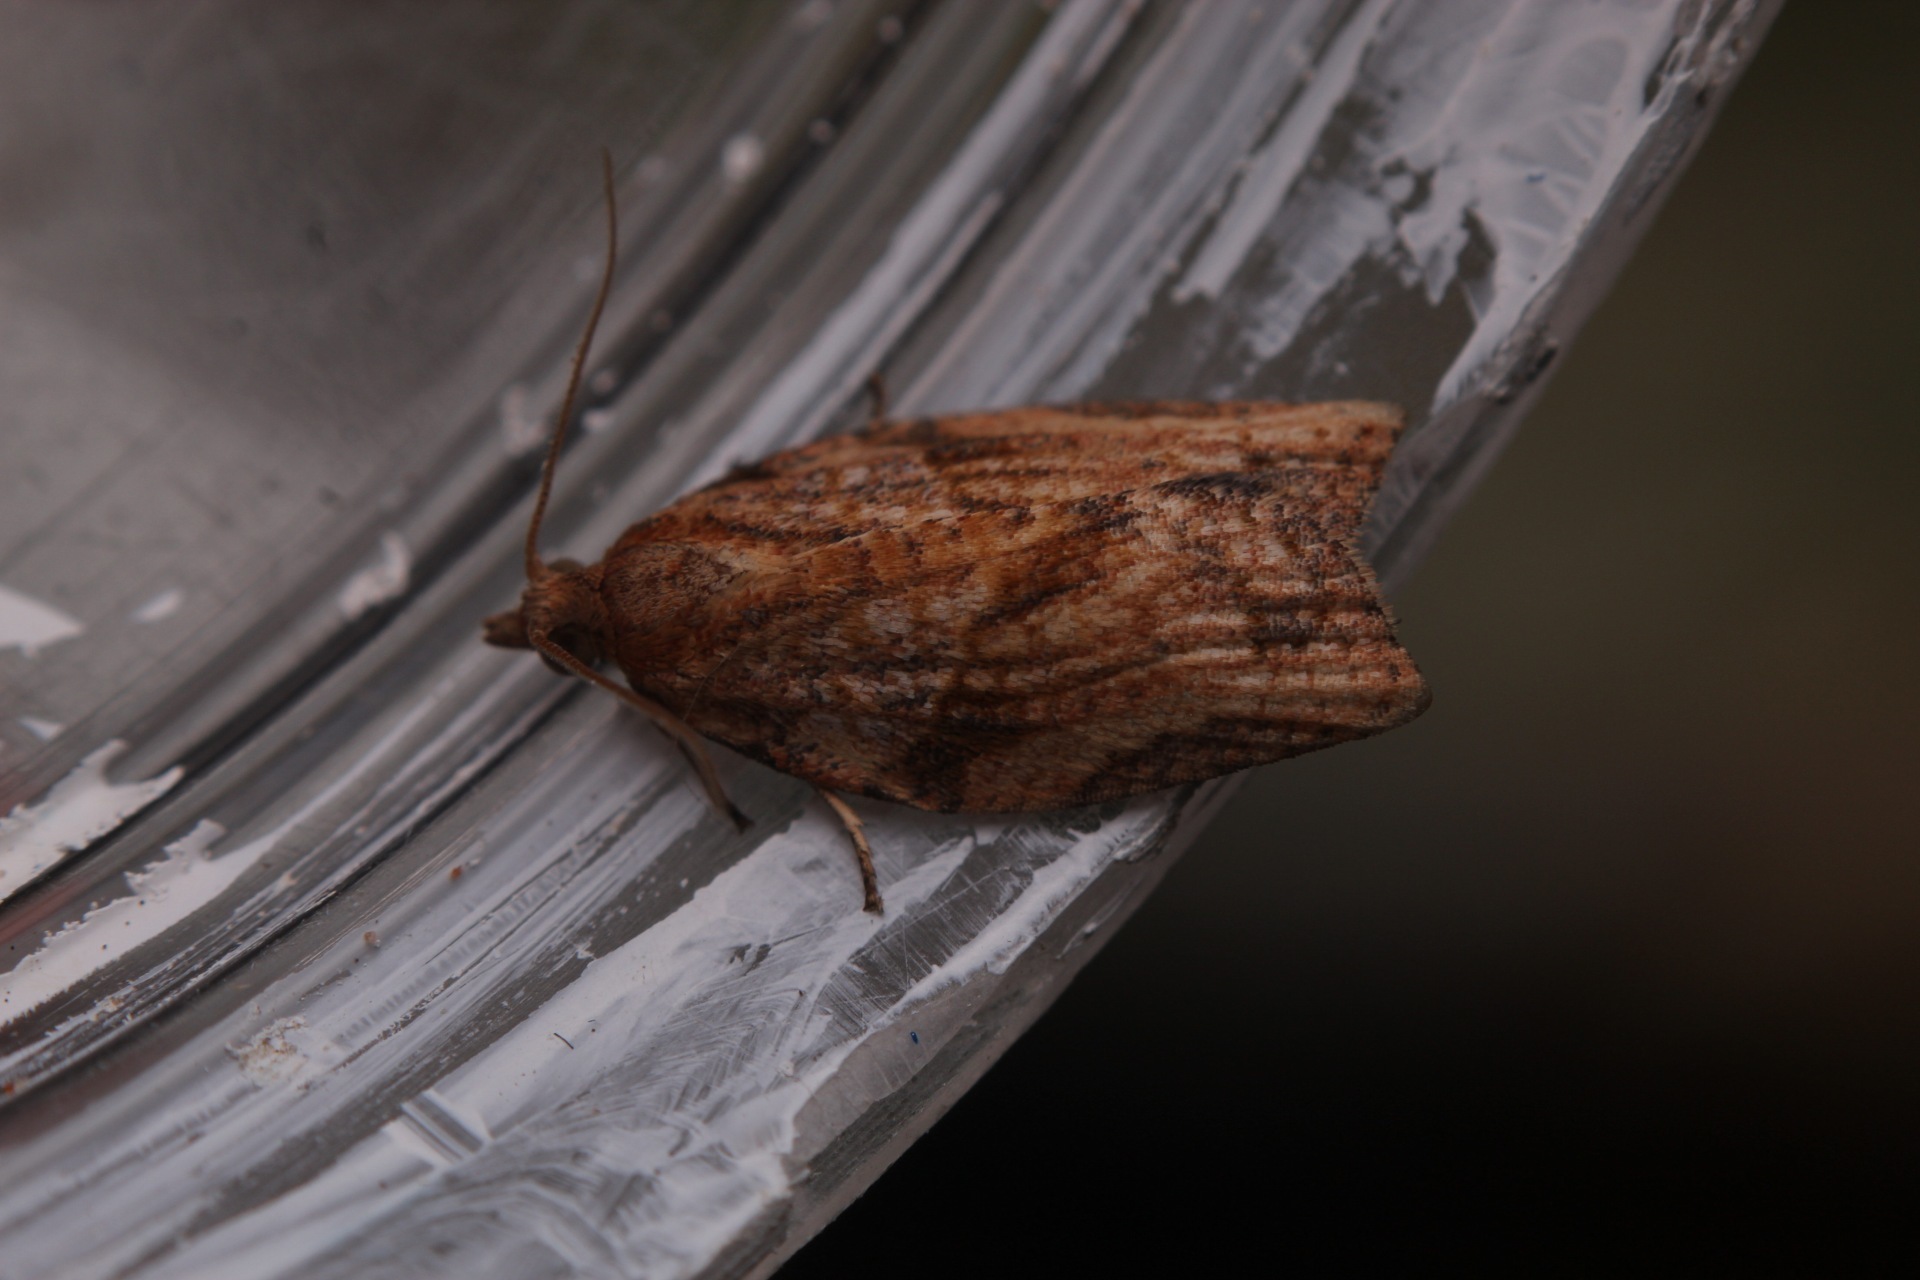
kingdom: Animalia
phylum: Arthropoda
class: Insecta
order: Lepidoptera
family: Tortricidae
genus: Epiphyas
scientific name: Epiphyas postvittana
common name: Light brown apple moth
